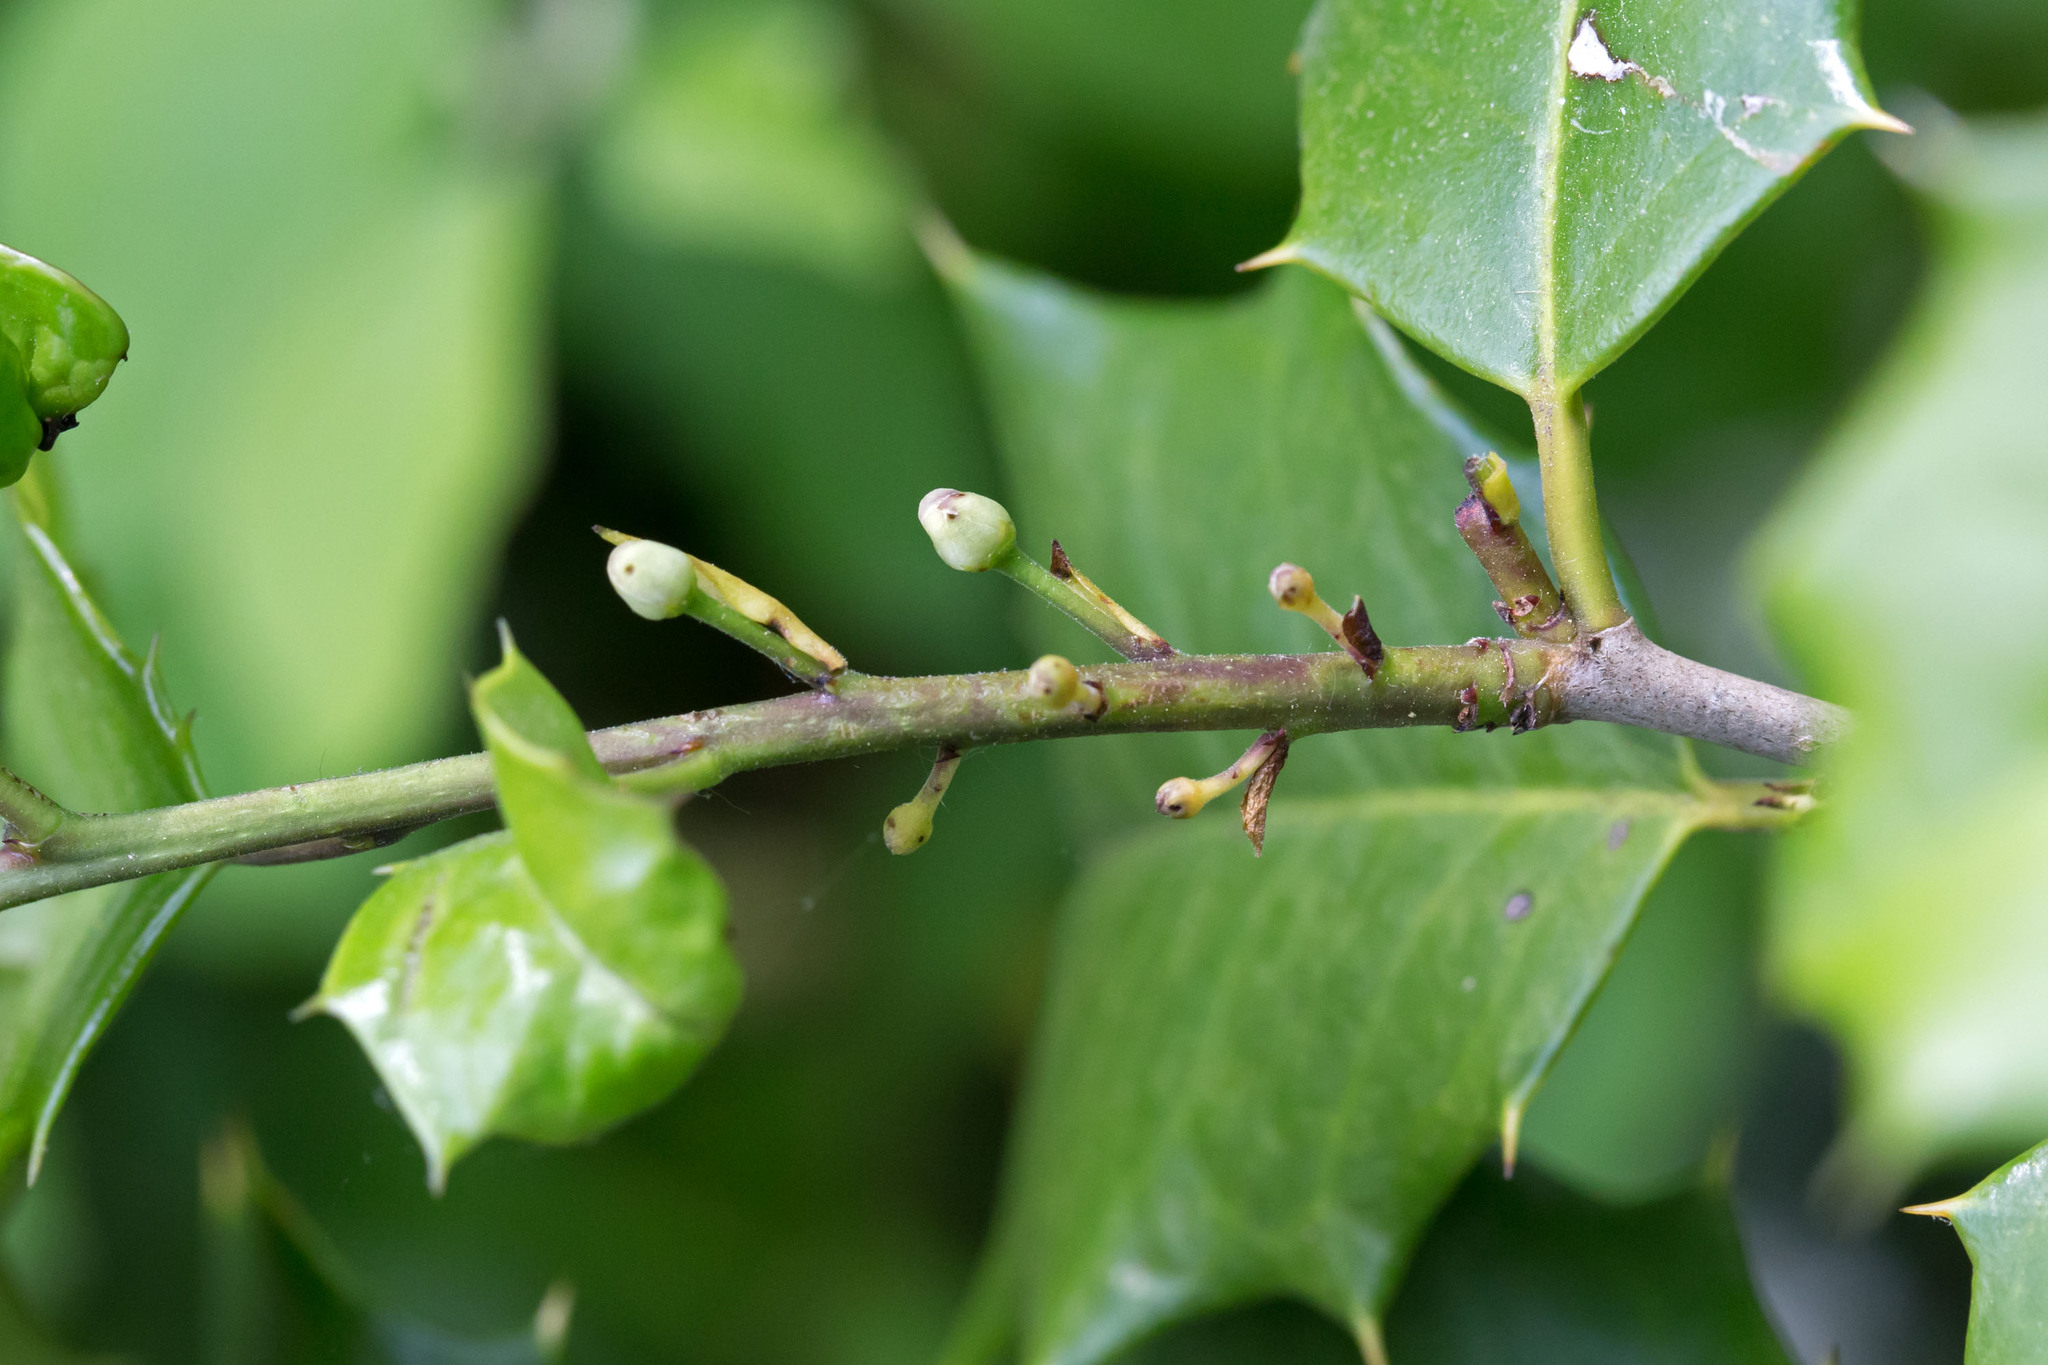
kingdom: Plantae
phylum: Tracheophyta
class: Magnoliopsida
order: Aquifoliales
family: Aquifoliaceae
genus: Ilex
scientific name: Ilex opaca
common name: American holly
